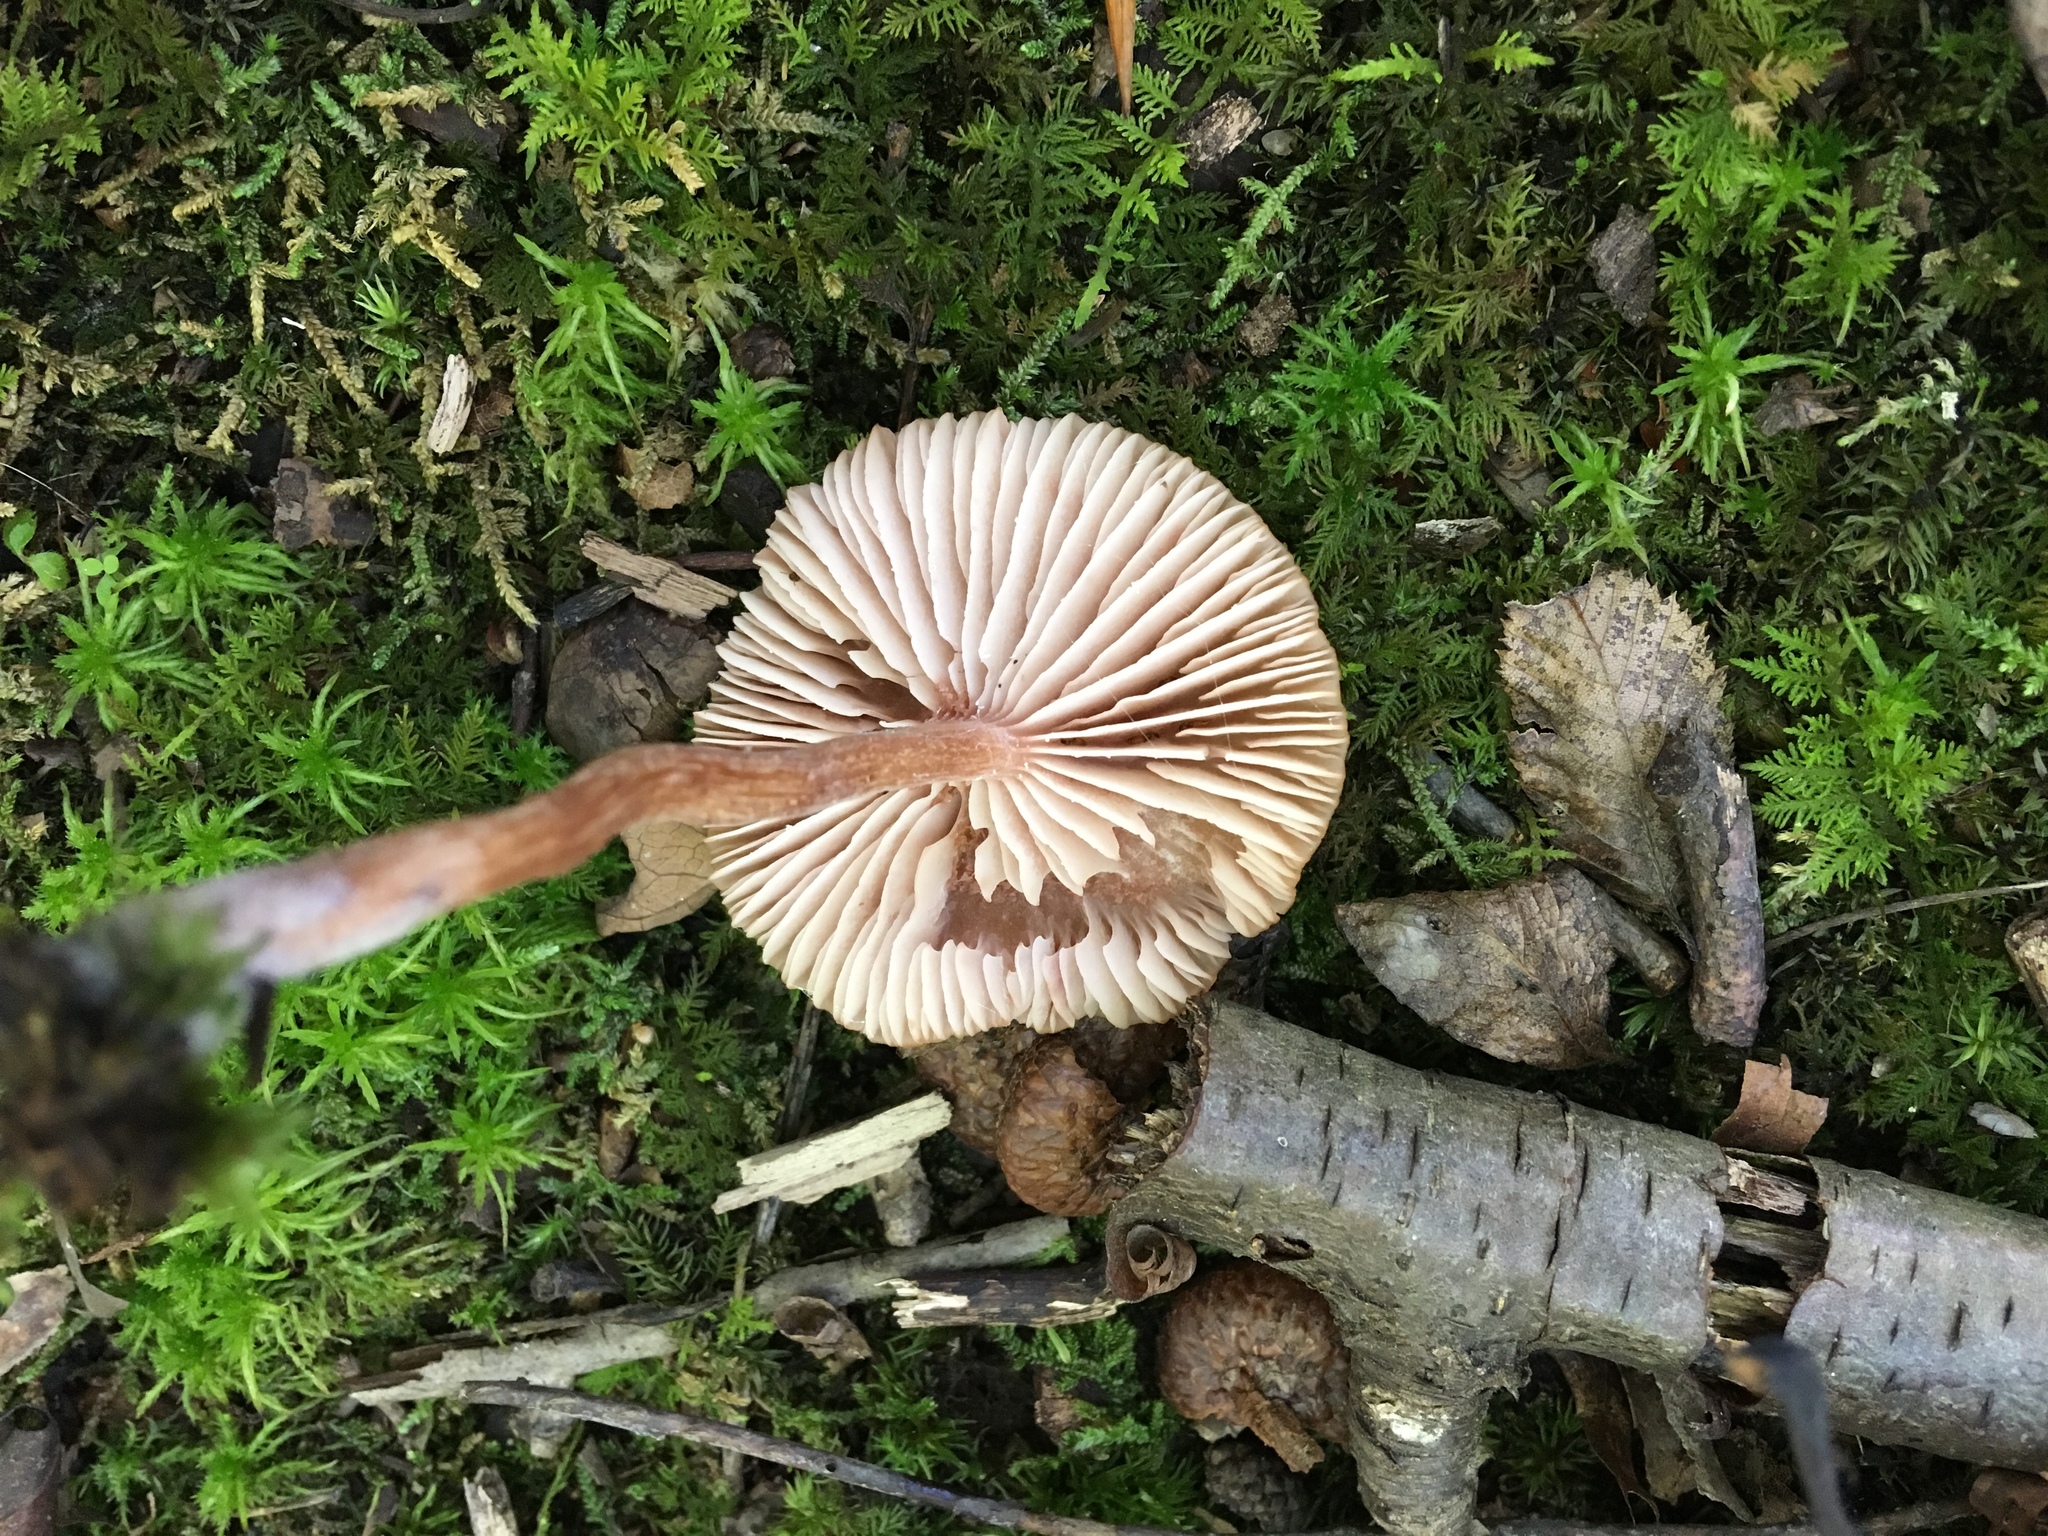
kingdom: Fungi
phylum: Basidiomycota
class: Agaricomycetes
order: Agaricales
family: Hydnangiaceae
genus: Laccaria
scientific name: Laccaria laccata
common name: Deceiver
